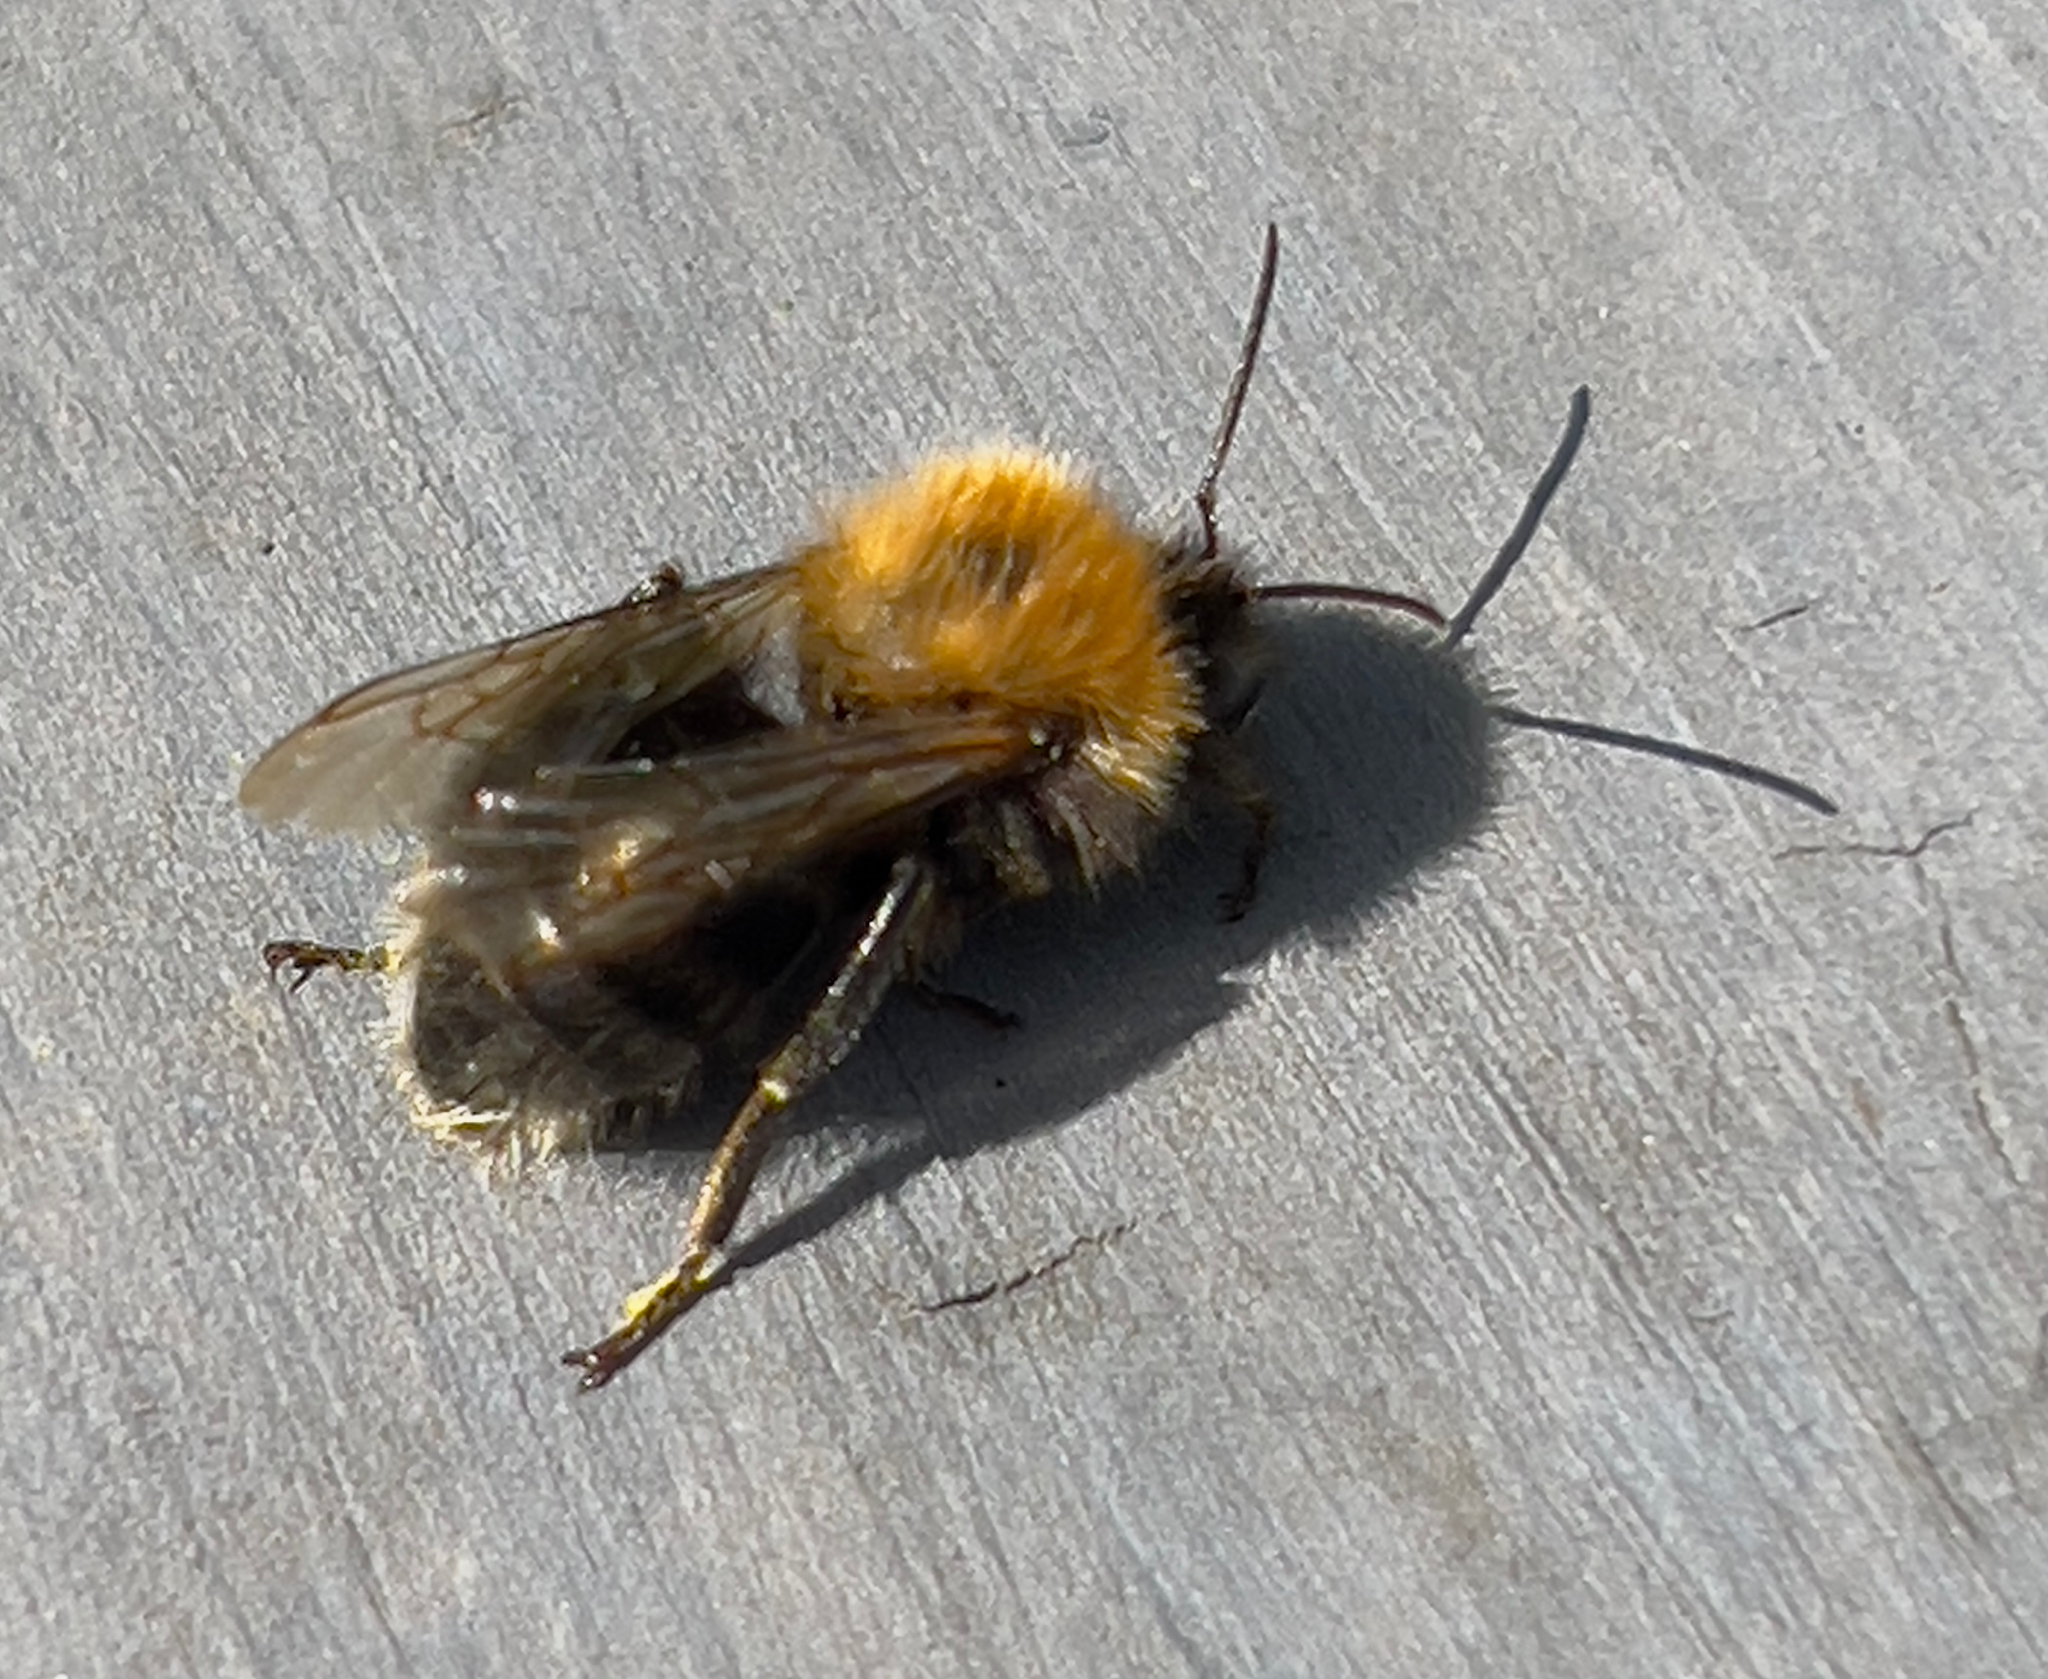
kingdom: Animalia
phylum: Arthropoda
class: Insecta
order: Hymenoptera
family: Apidae
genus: Bombus
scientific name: Bombus hypnorum
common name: New garden bumblebee
